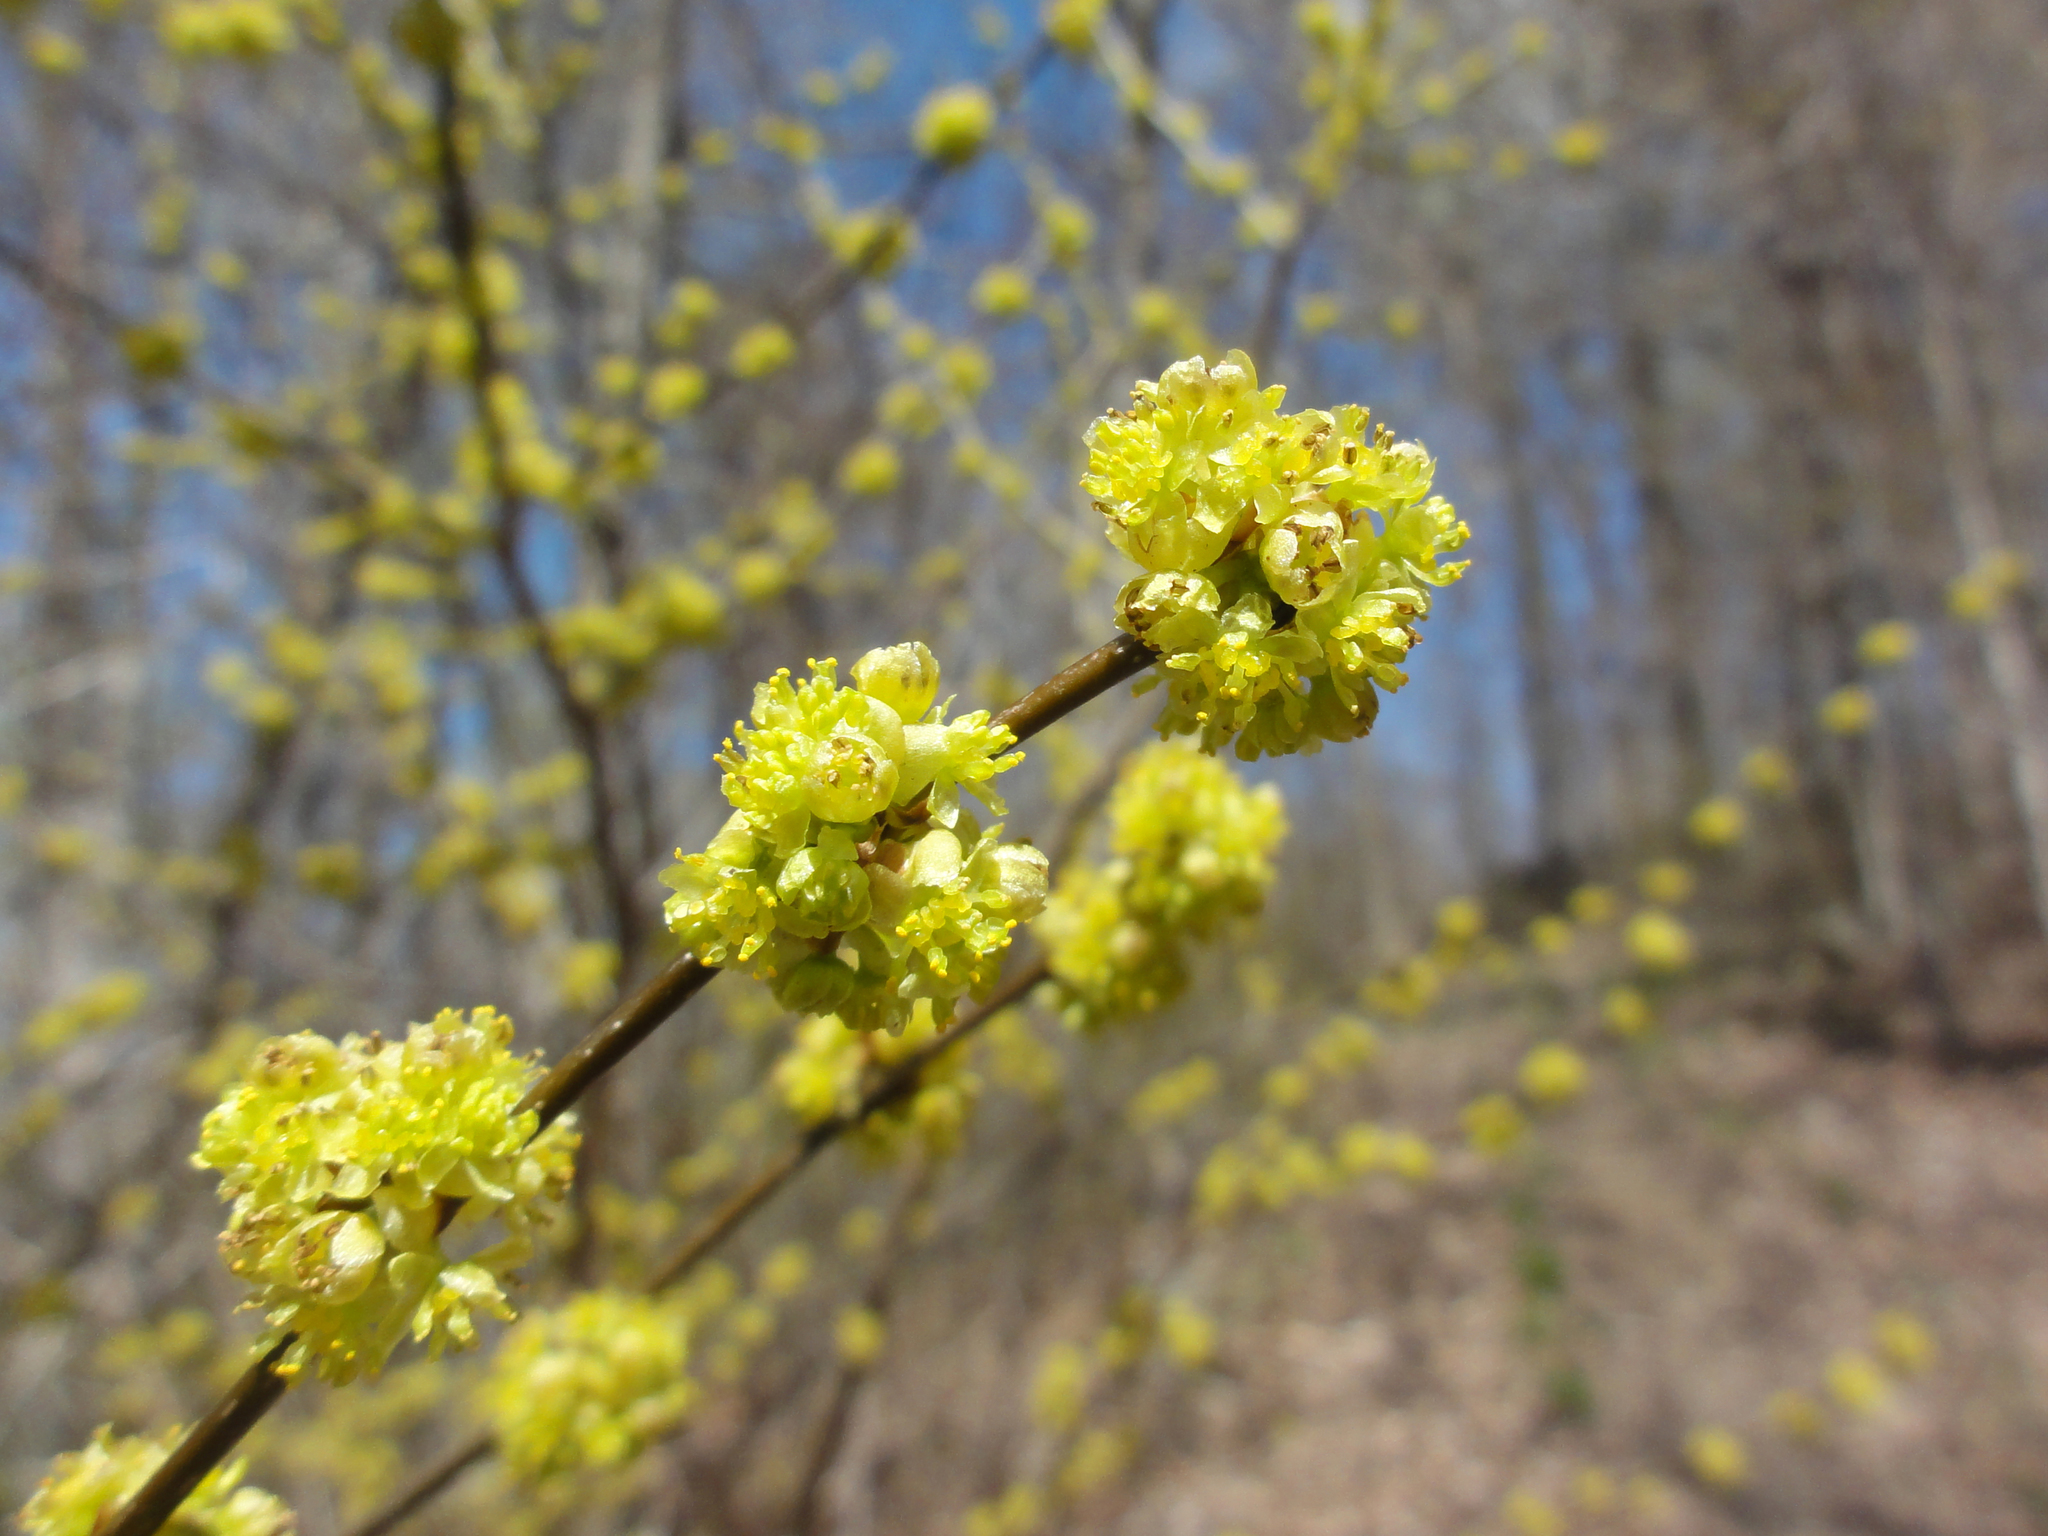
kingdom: Plantae
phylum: Tracheophyta
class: Magnoliopsida
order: Laurales
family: Lauraceae
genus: Lindera
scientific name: Lindera benzoin
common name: Spicebush
